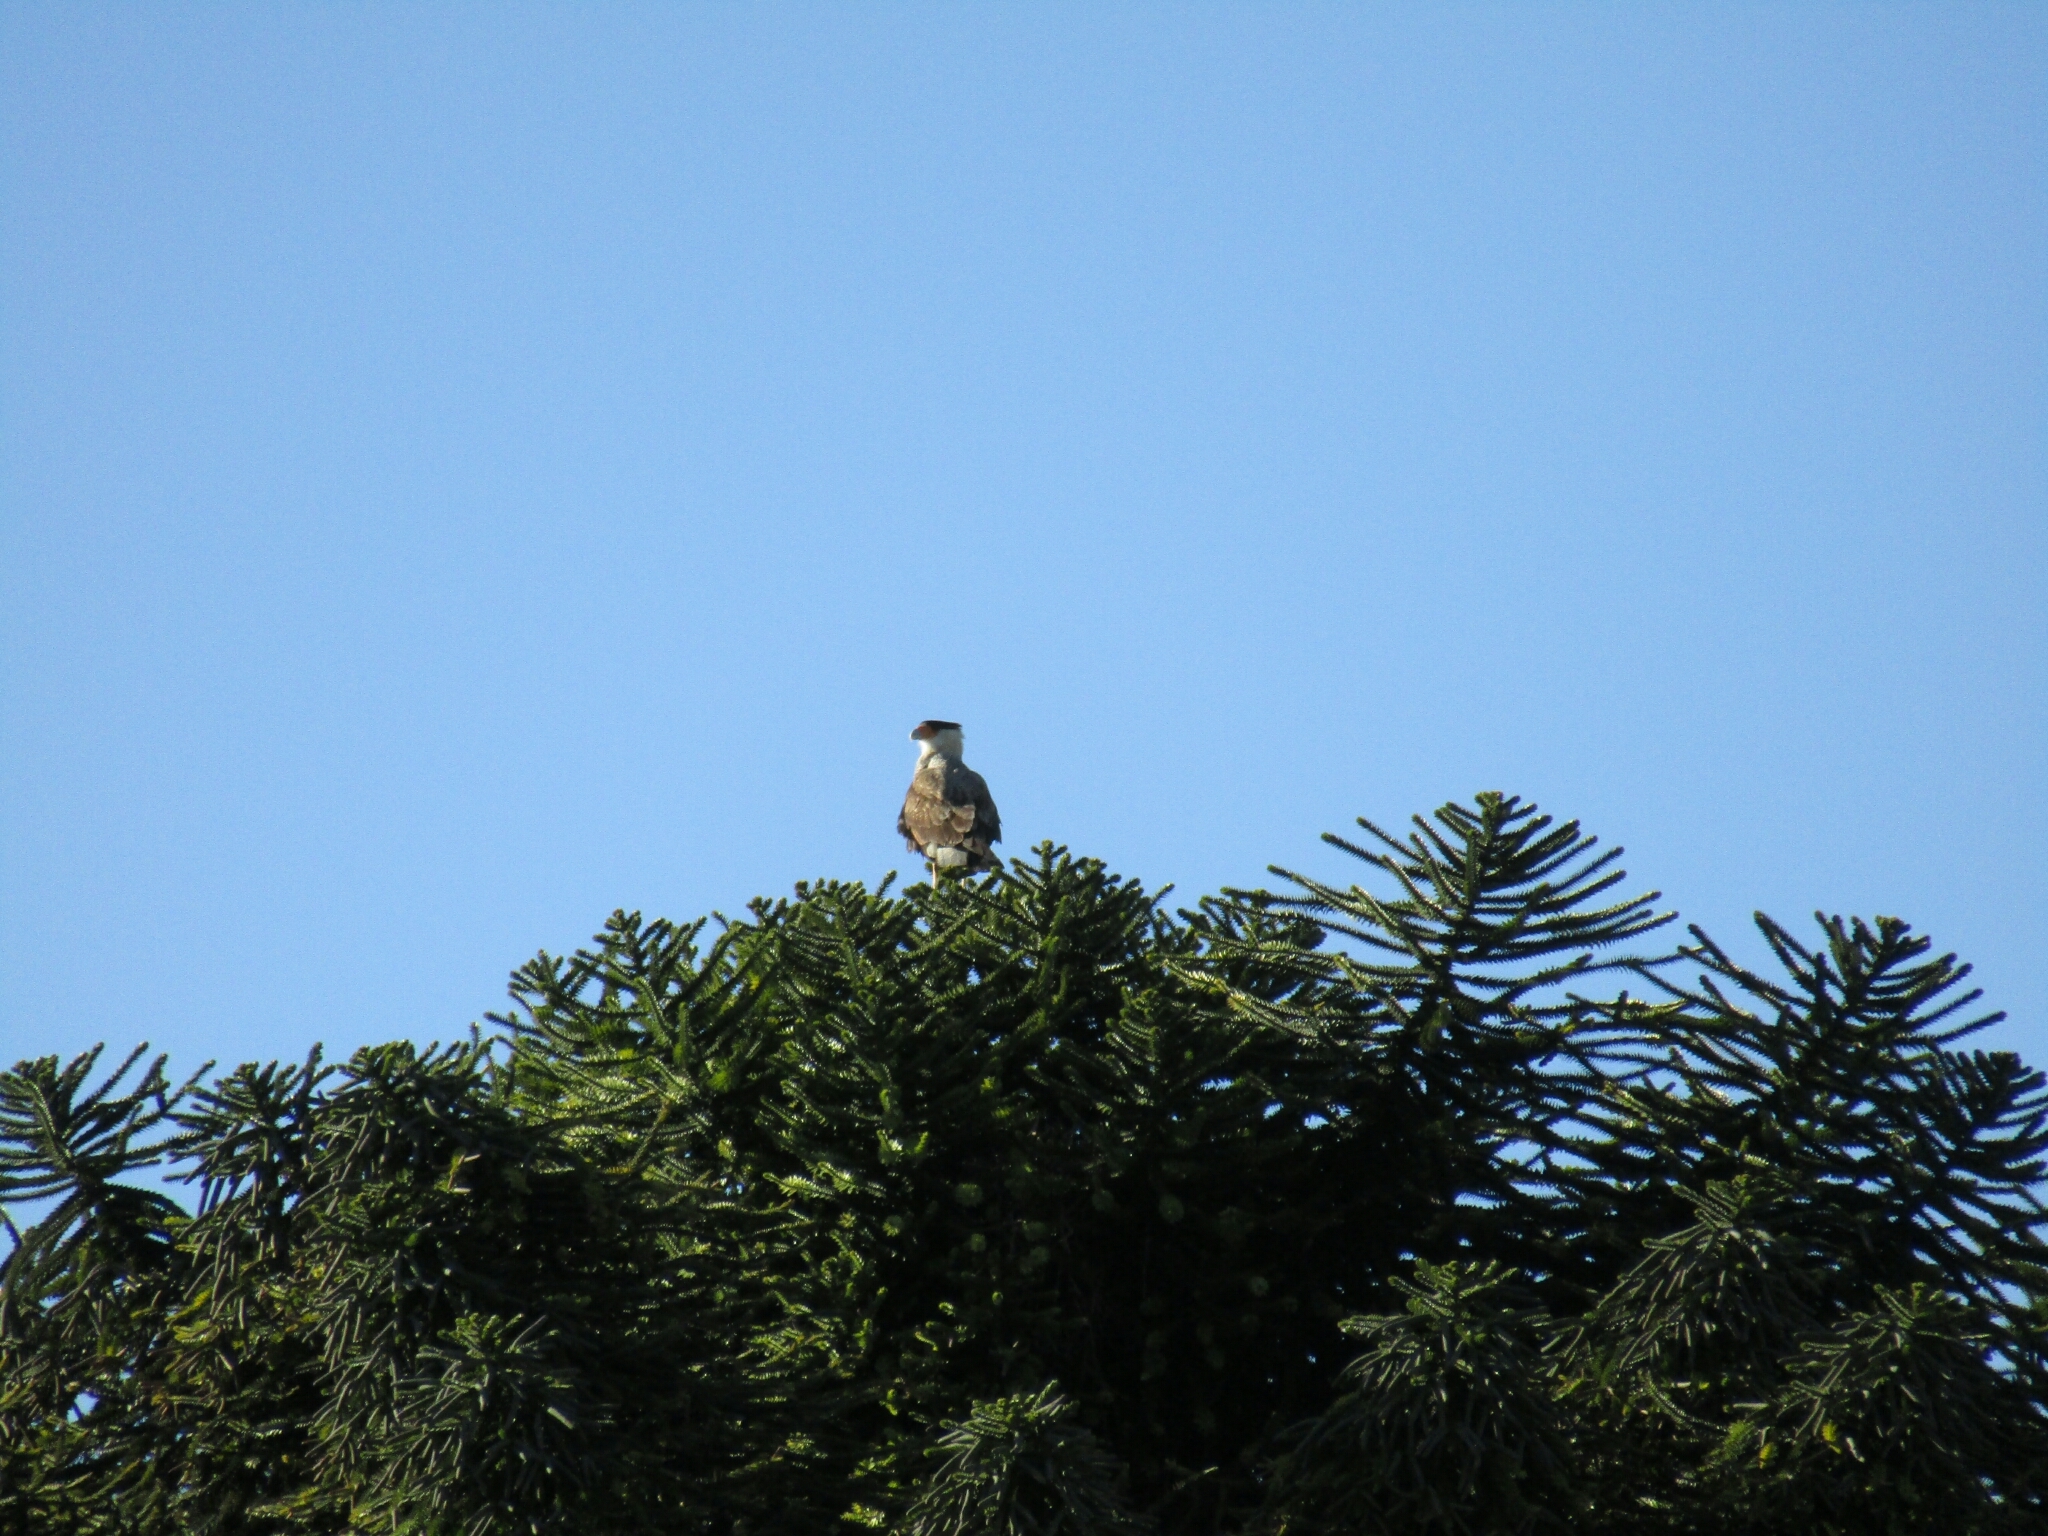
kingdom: Animalia
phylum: Chordata
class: Aves
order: Falconiformes
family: Falconidae
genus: Caracara
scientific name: Caracara plancus
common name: Southern caracara
